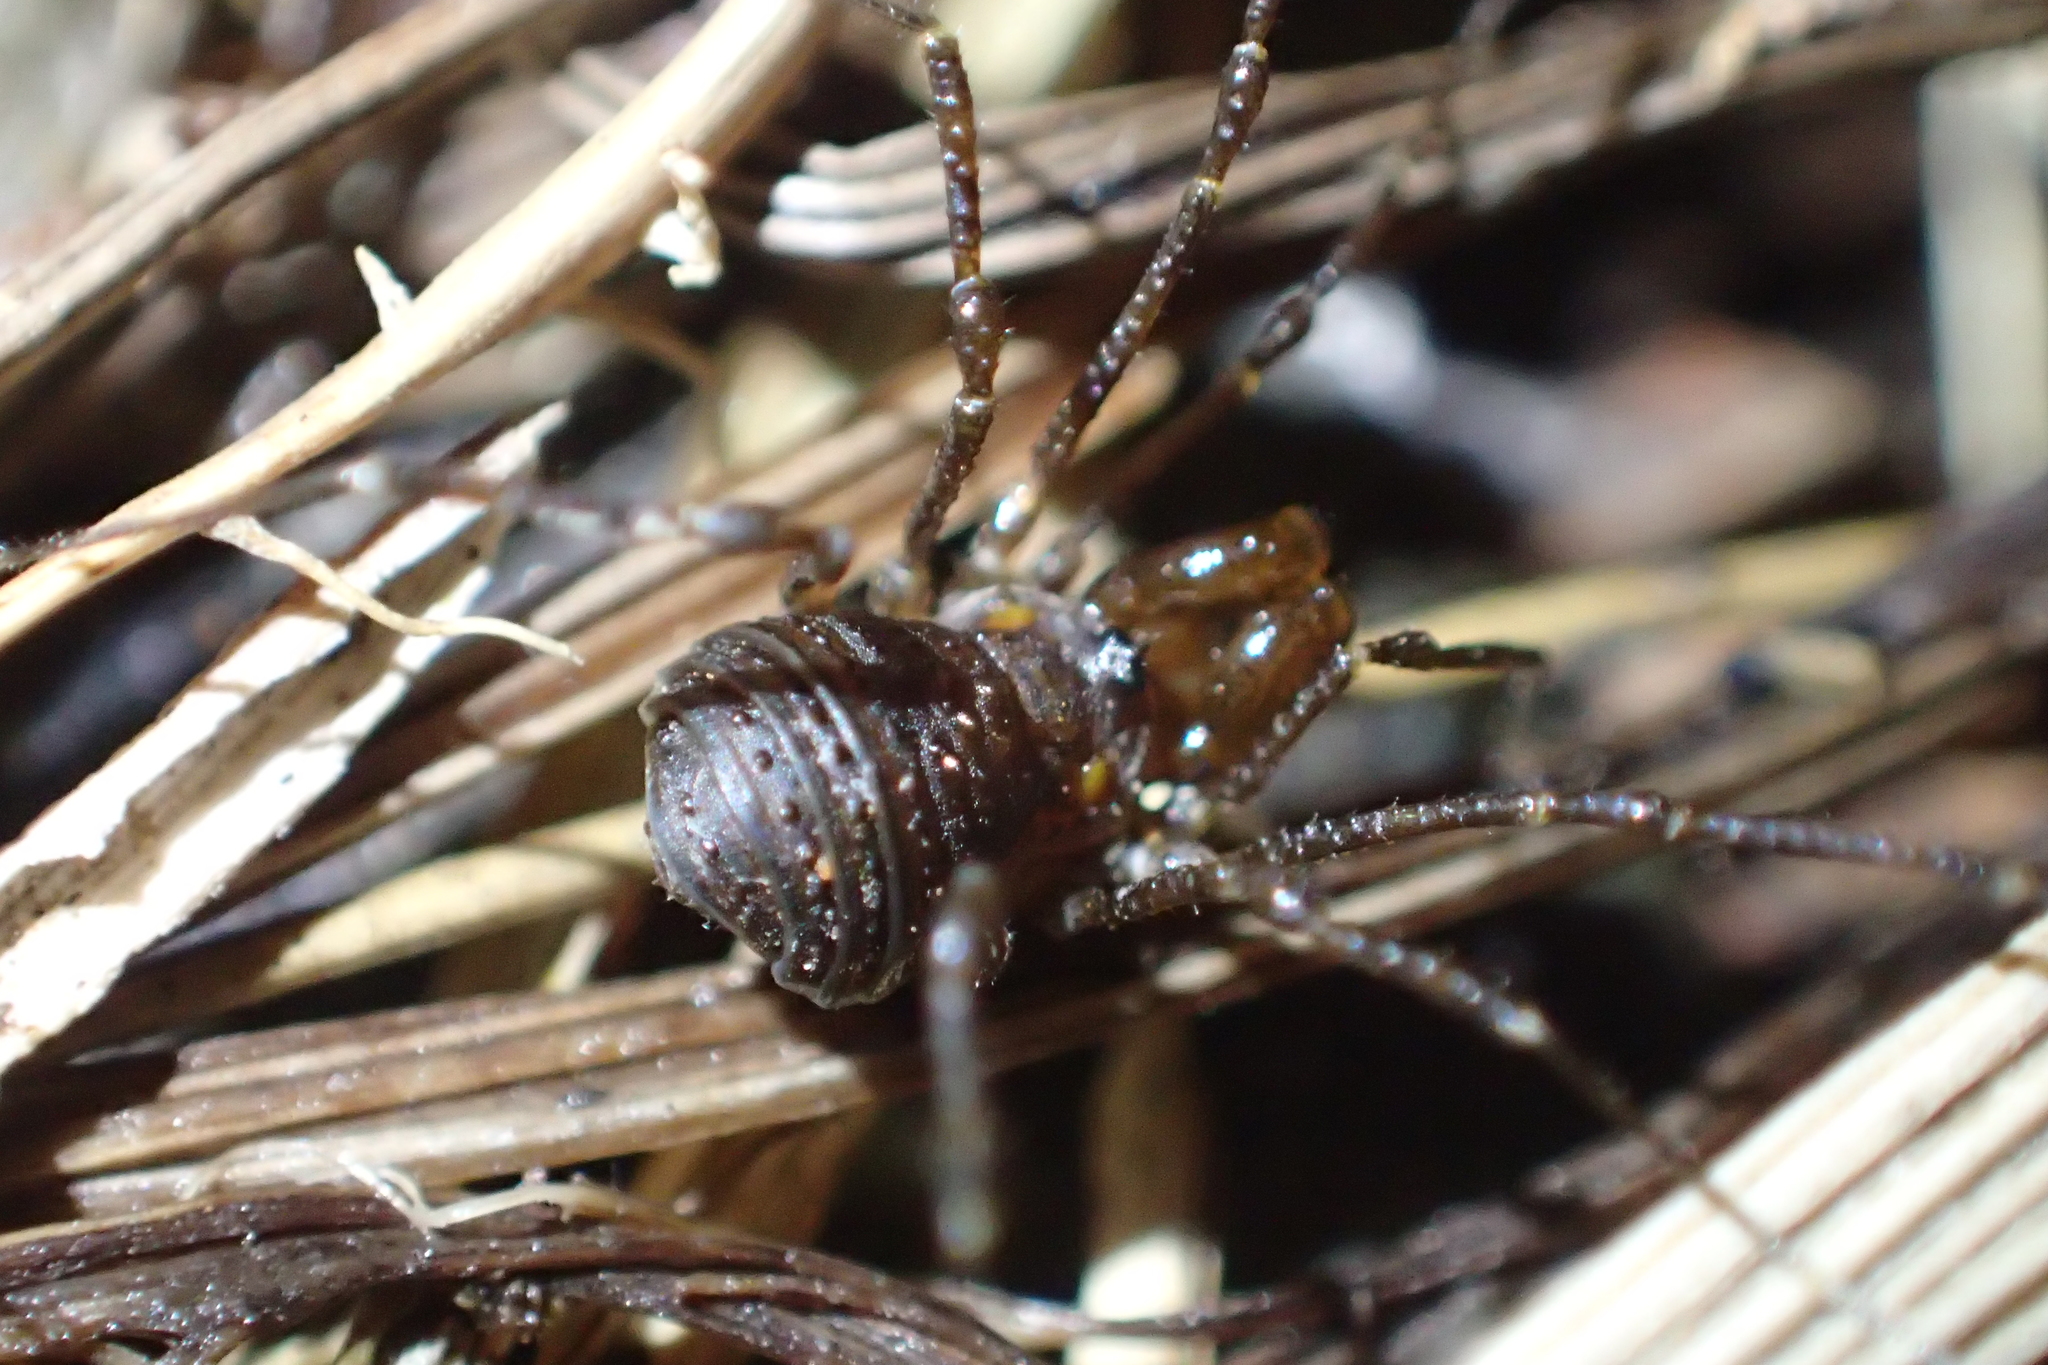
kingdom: Animalia
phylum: Arthropoda
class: Arachnida
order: Opiliones
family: Triaenonychidae
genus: Hendea
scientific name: Hendea myersi
